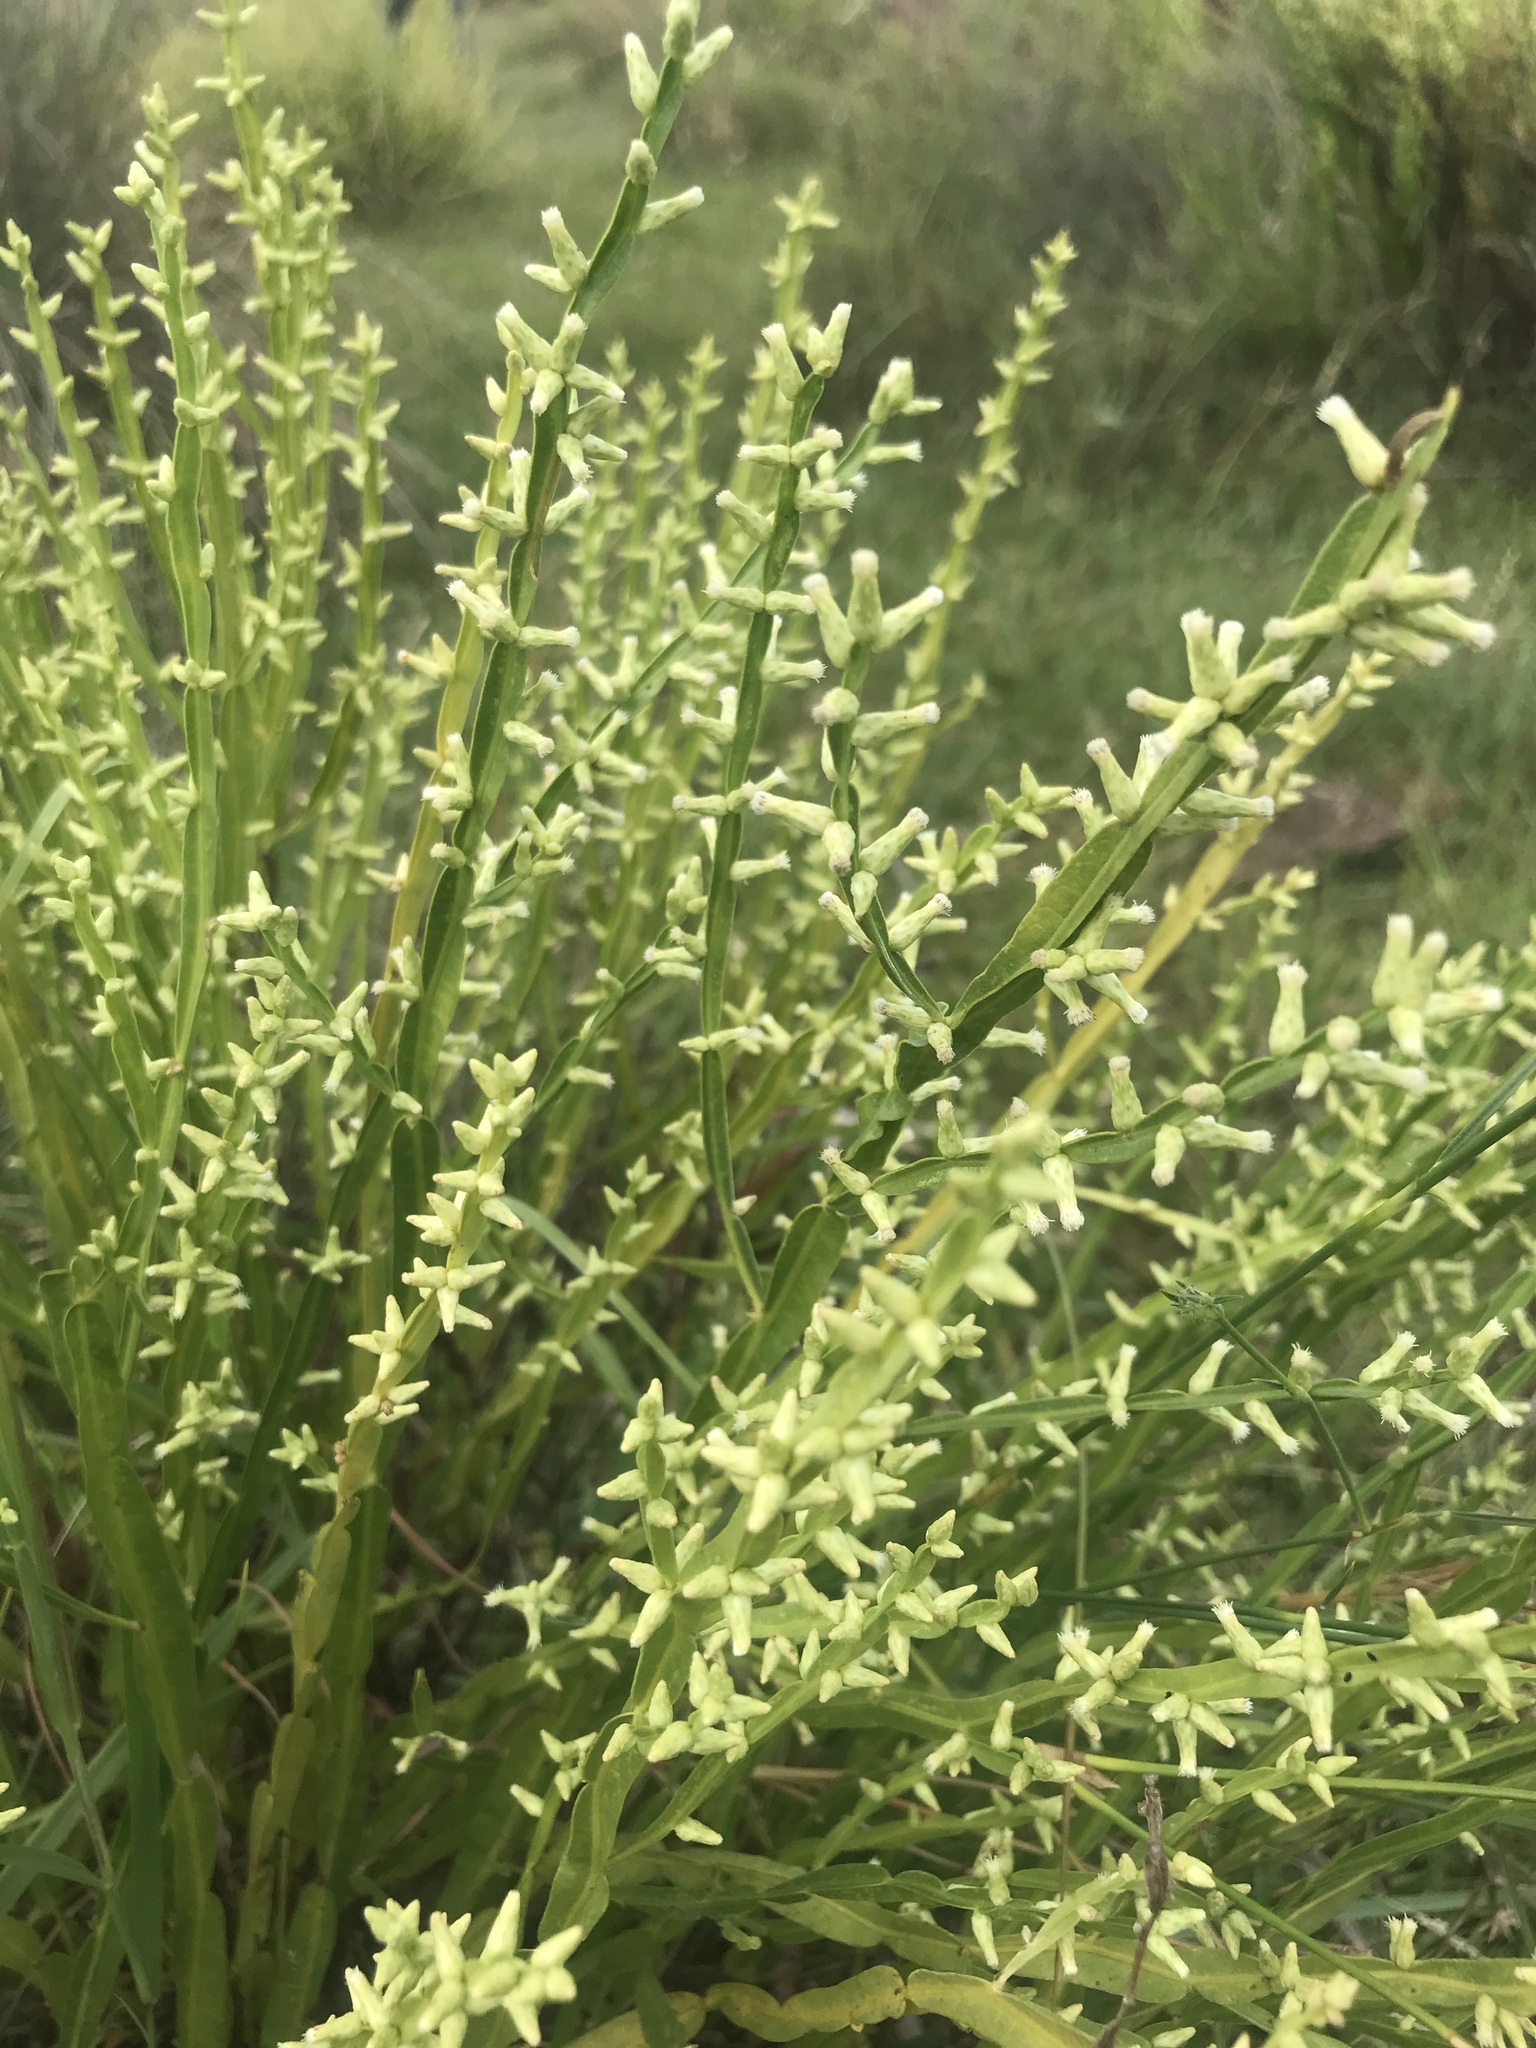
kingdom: Plantae
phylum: Tracheophyta
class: Magnoliopsida
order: Asterales
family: Asteraceae
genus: Baccharis
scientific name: Baccharis trimera
